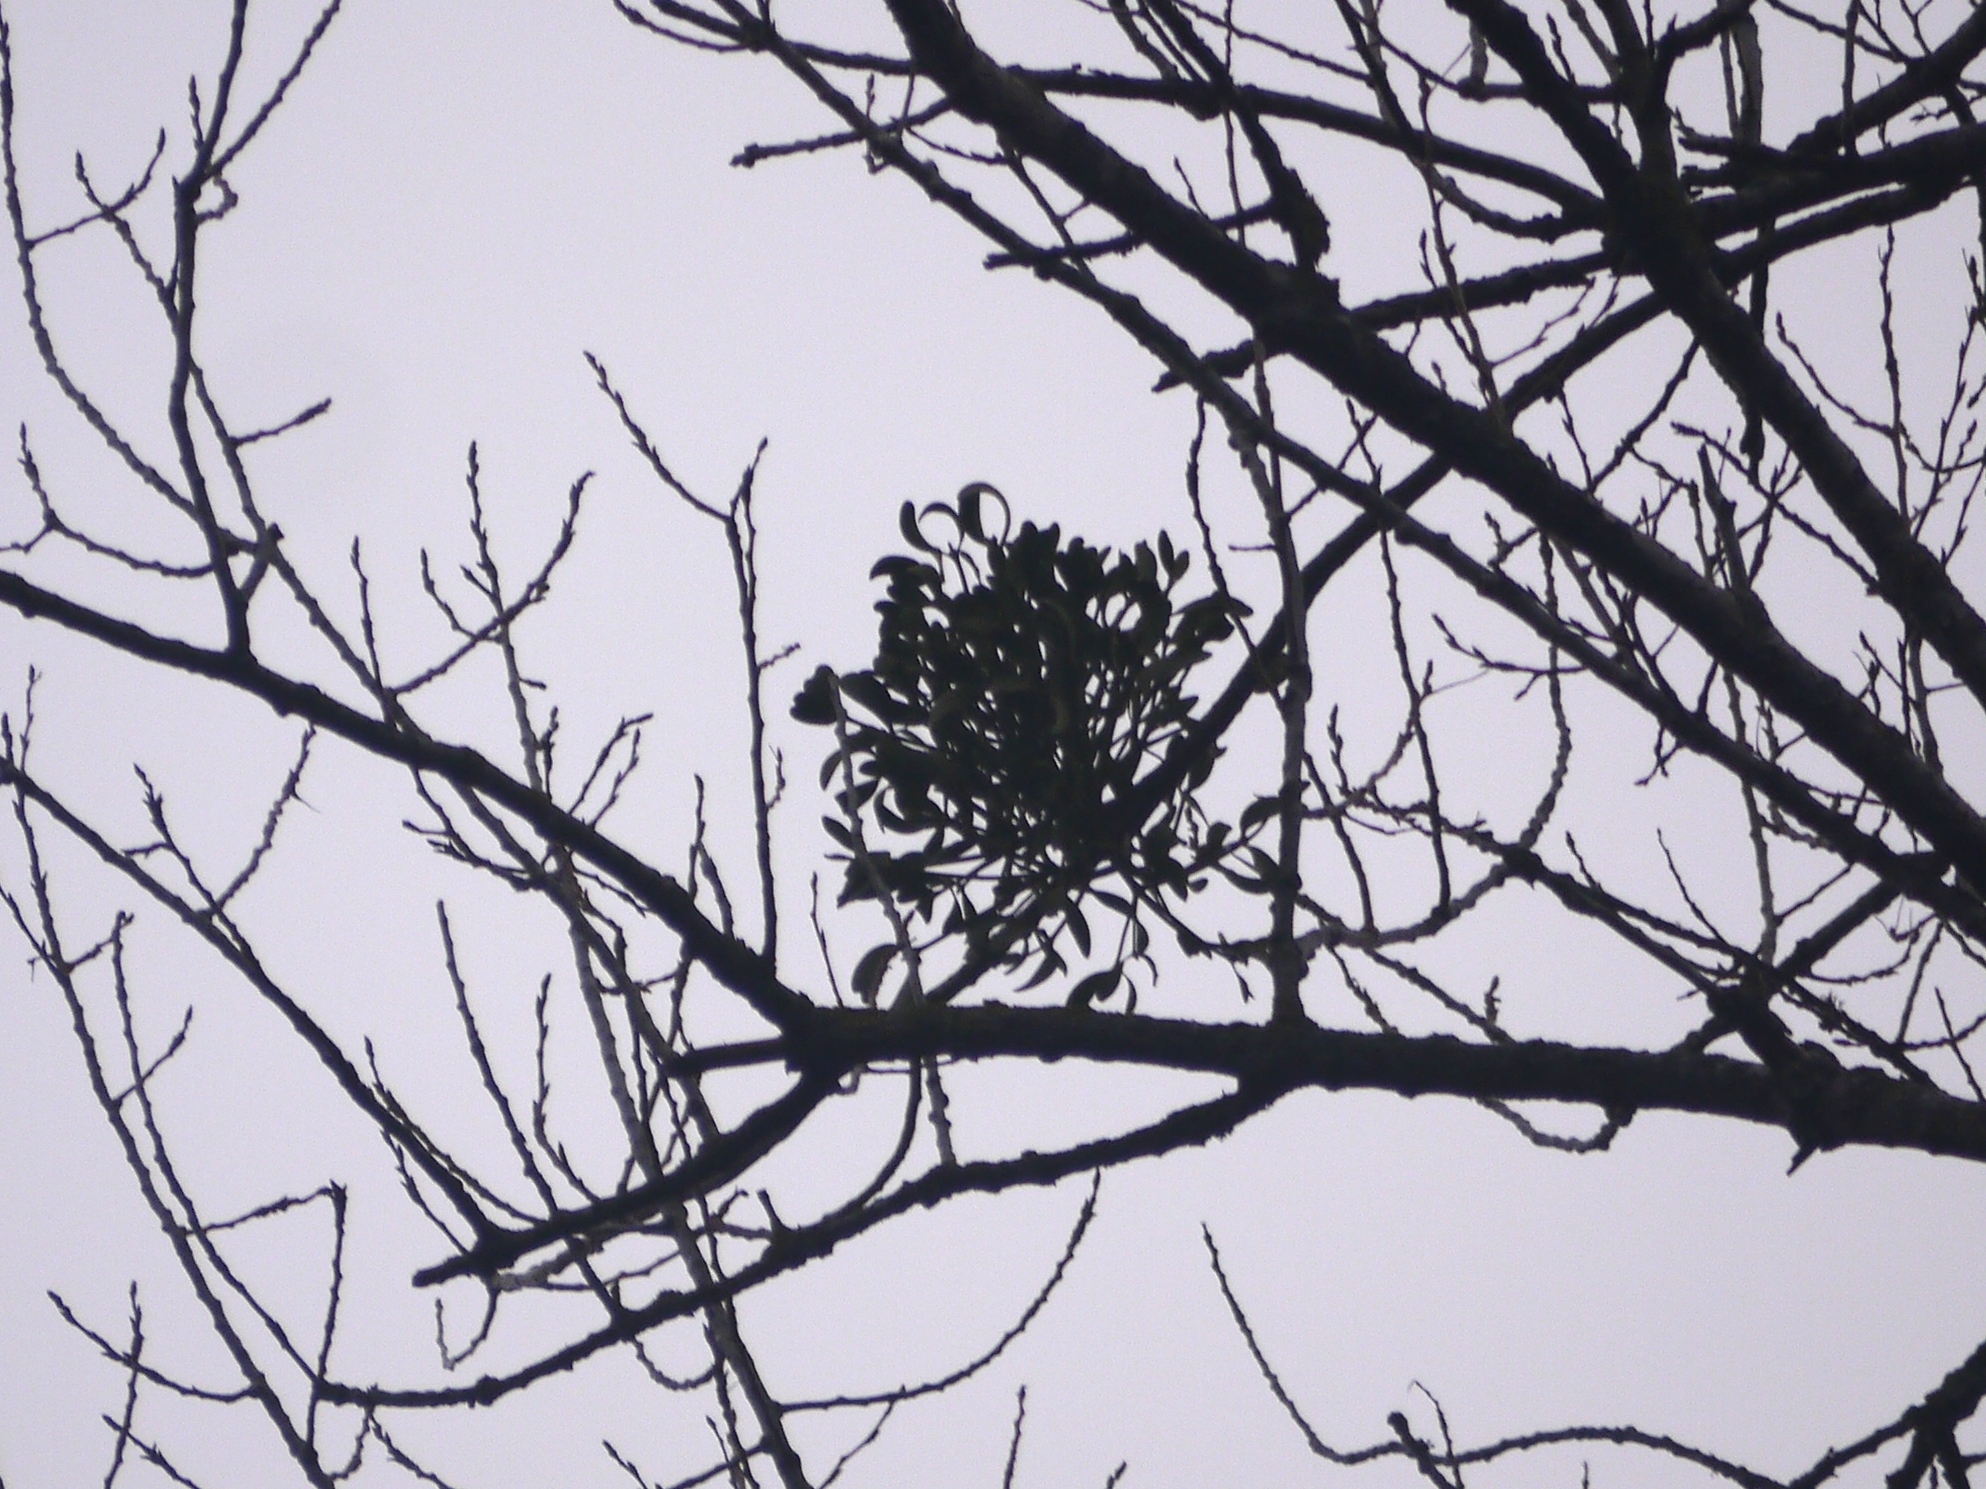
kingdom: Plantae
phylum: Tracheophyta
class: Magnoliopsida
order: Santalales
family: Viscaceae
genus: Viscum
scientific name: Viscum album
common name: Mistletoe
